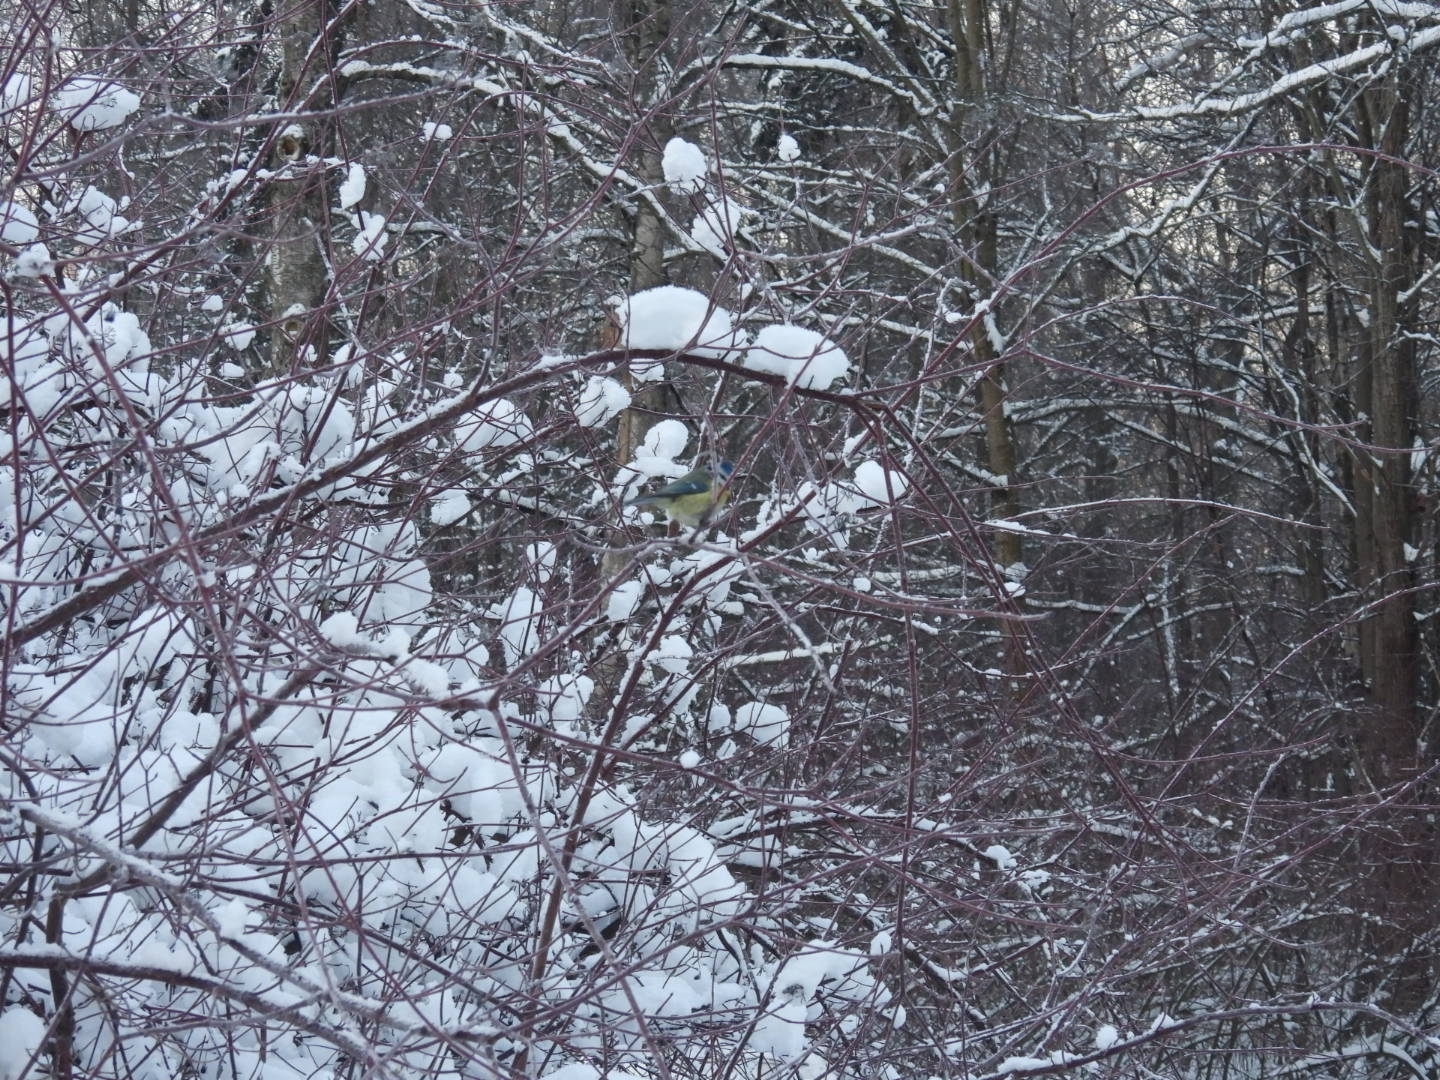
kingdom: Animalia
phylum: Chordata
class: Aves
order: Passeriformes
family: Paridae
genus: Cyanistes
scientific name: Cyanistes caeruleus
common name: Eurasian blue tit
